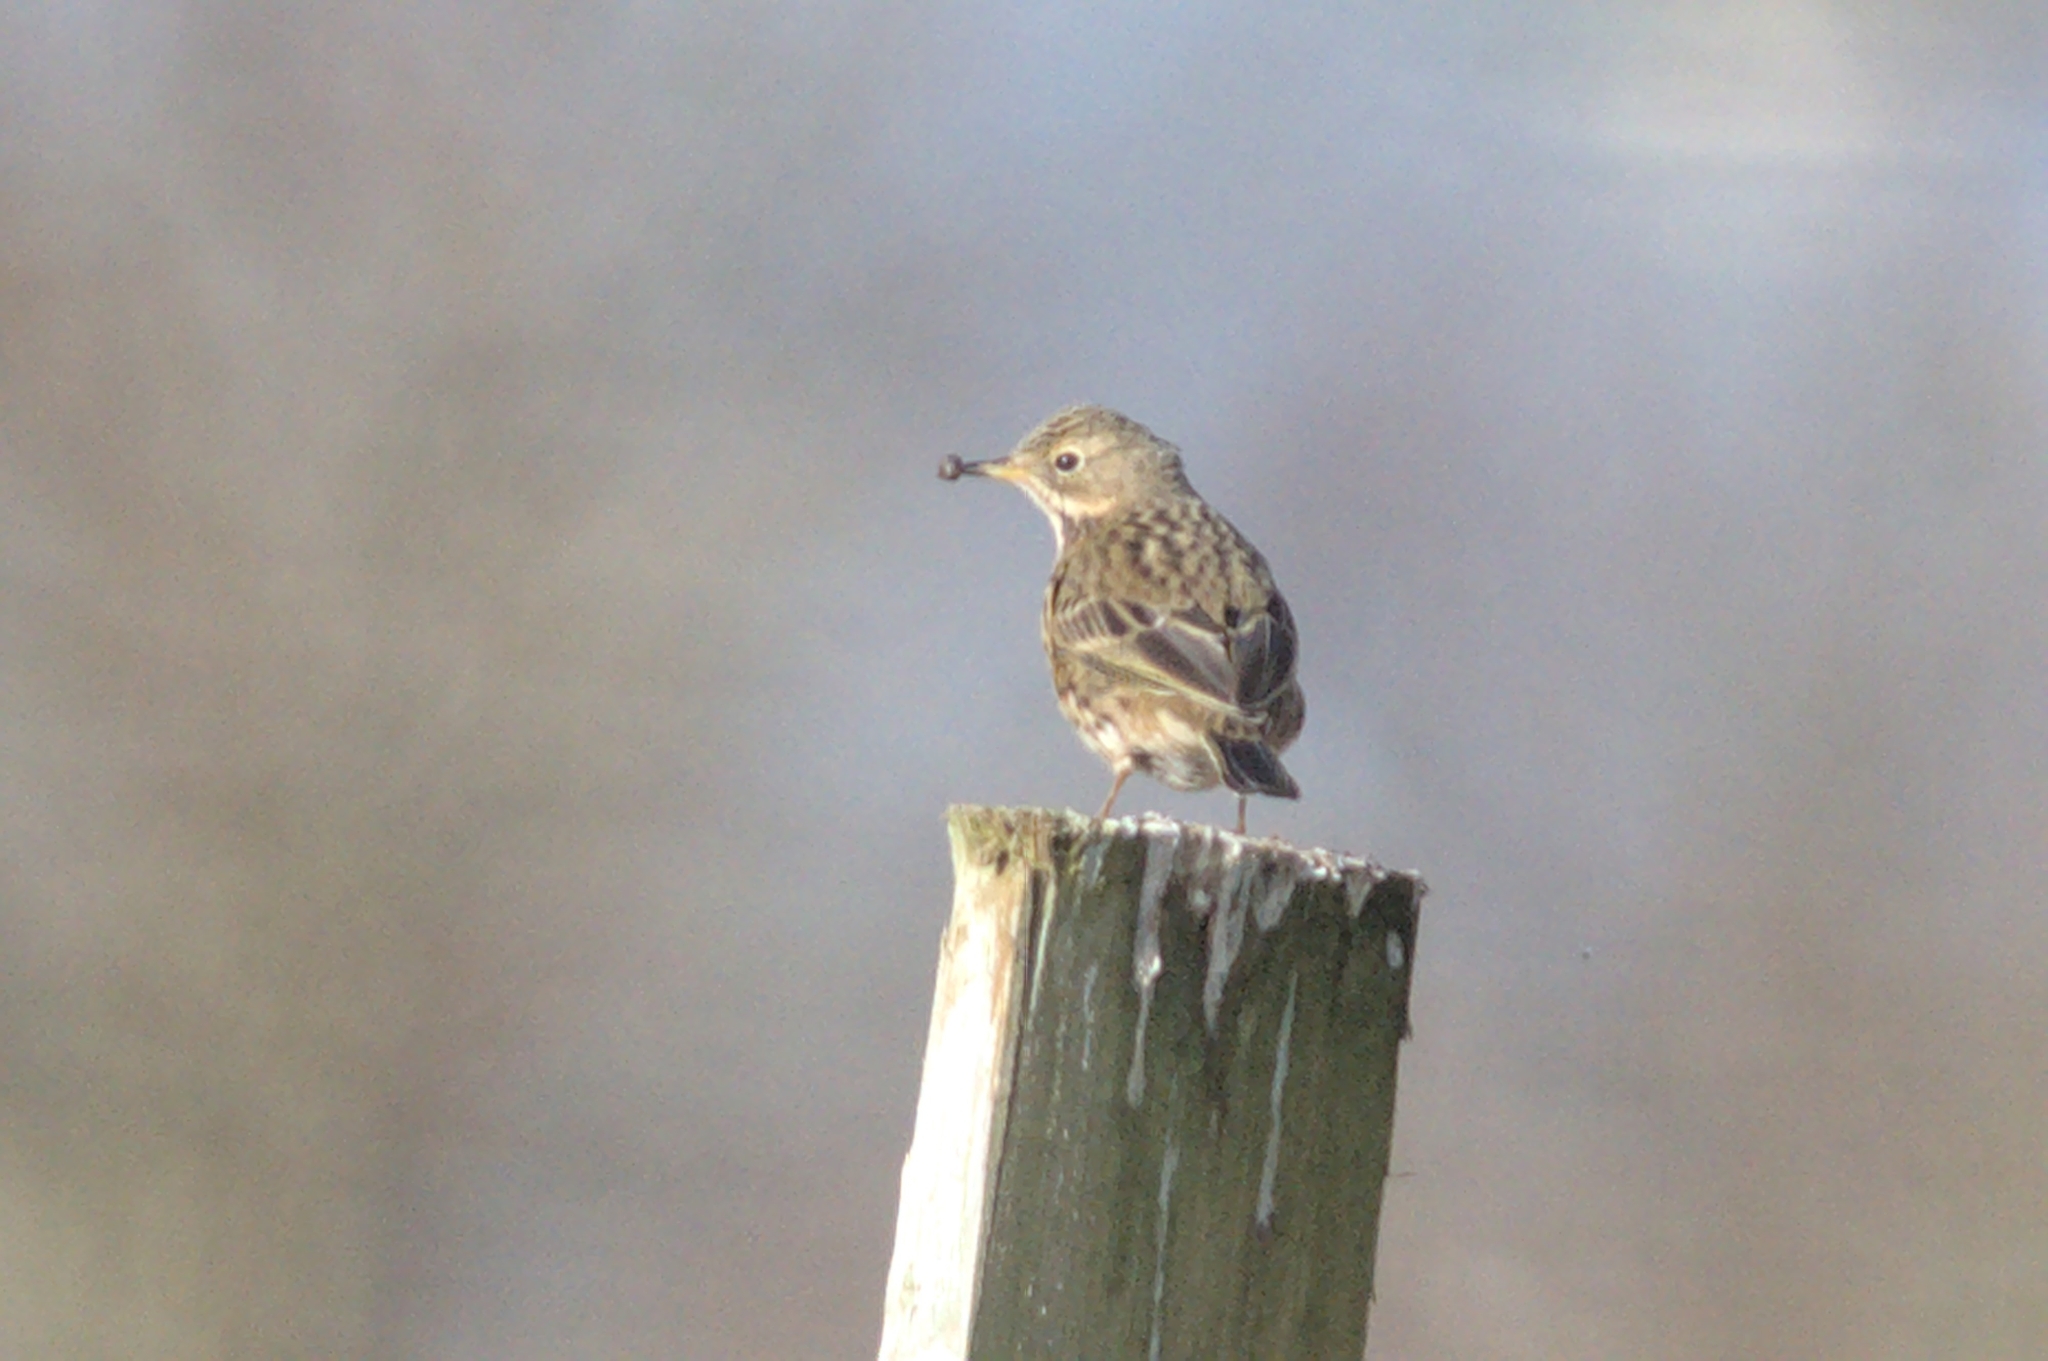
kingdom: Animalia
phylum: Chordata
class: Aves
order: Passeriformes
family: Motacillidae
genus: Anthus
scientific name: Anthus pratensis
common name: Meadow pipit
